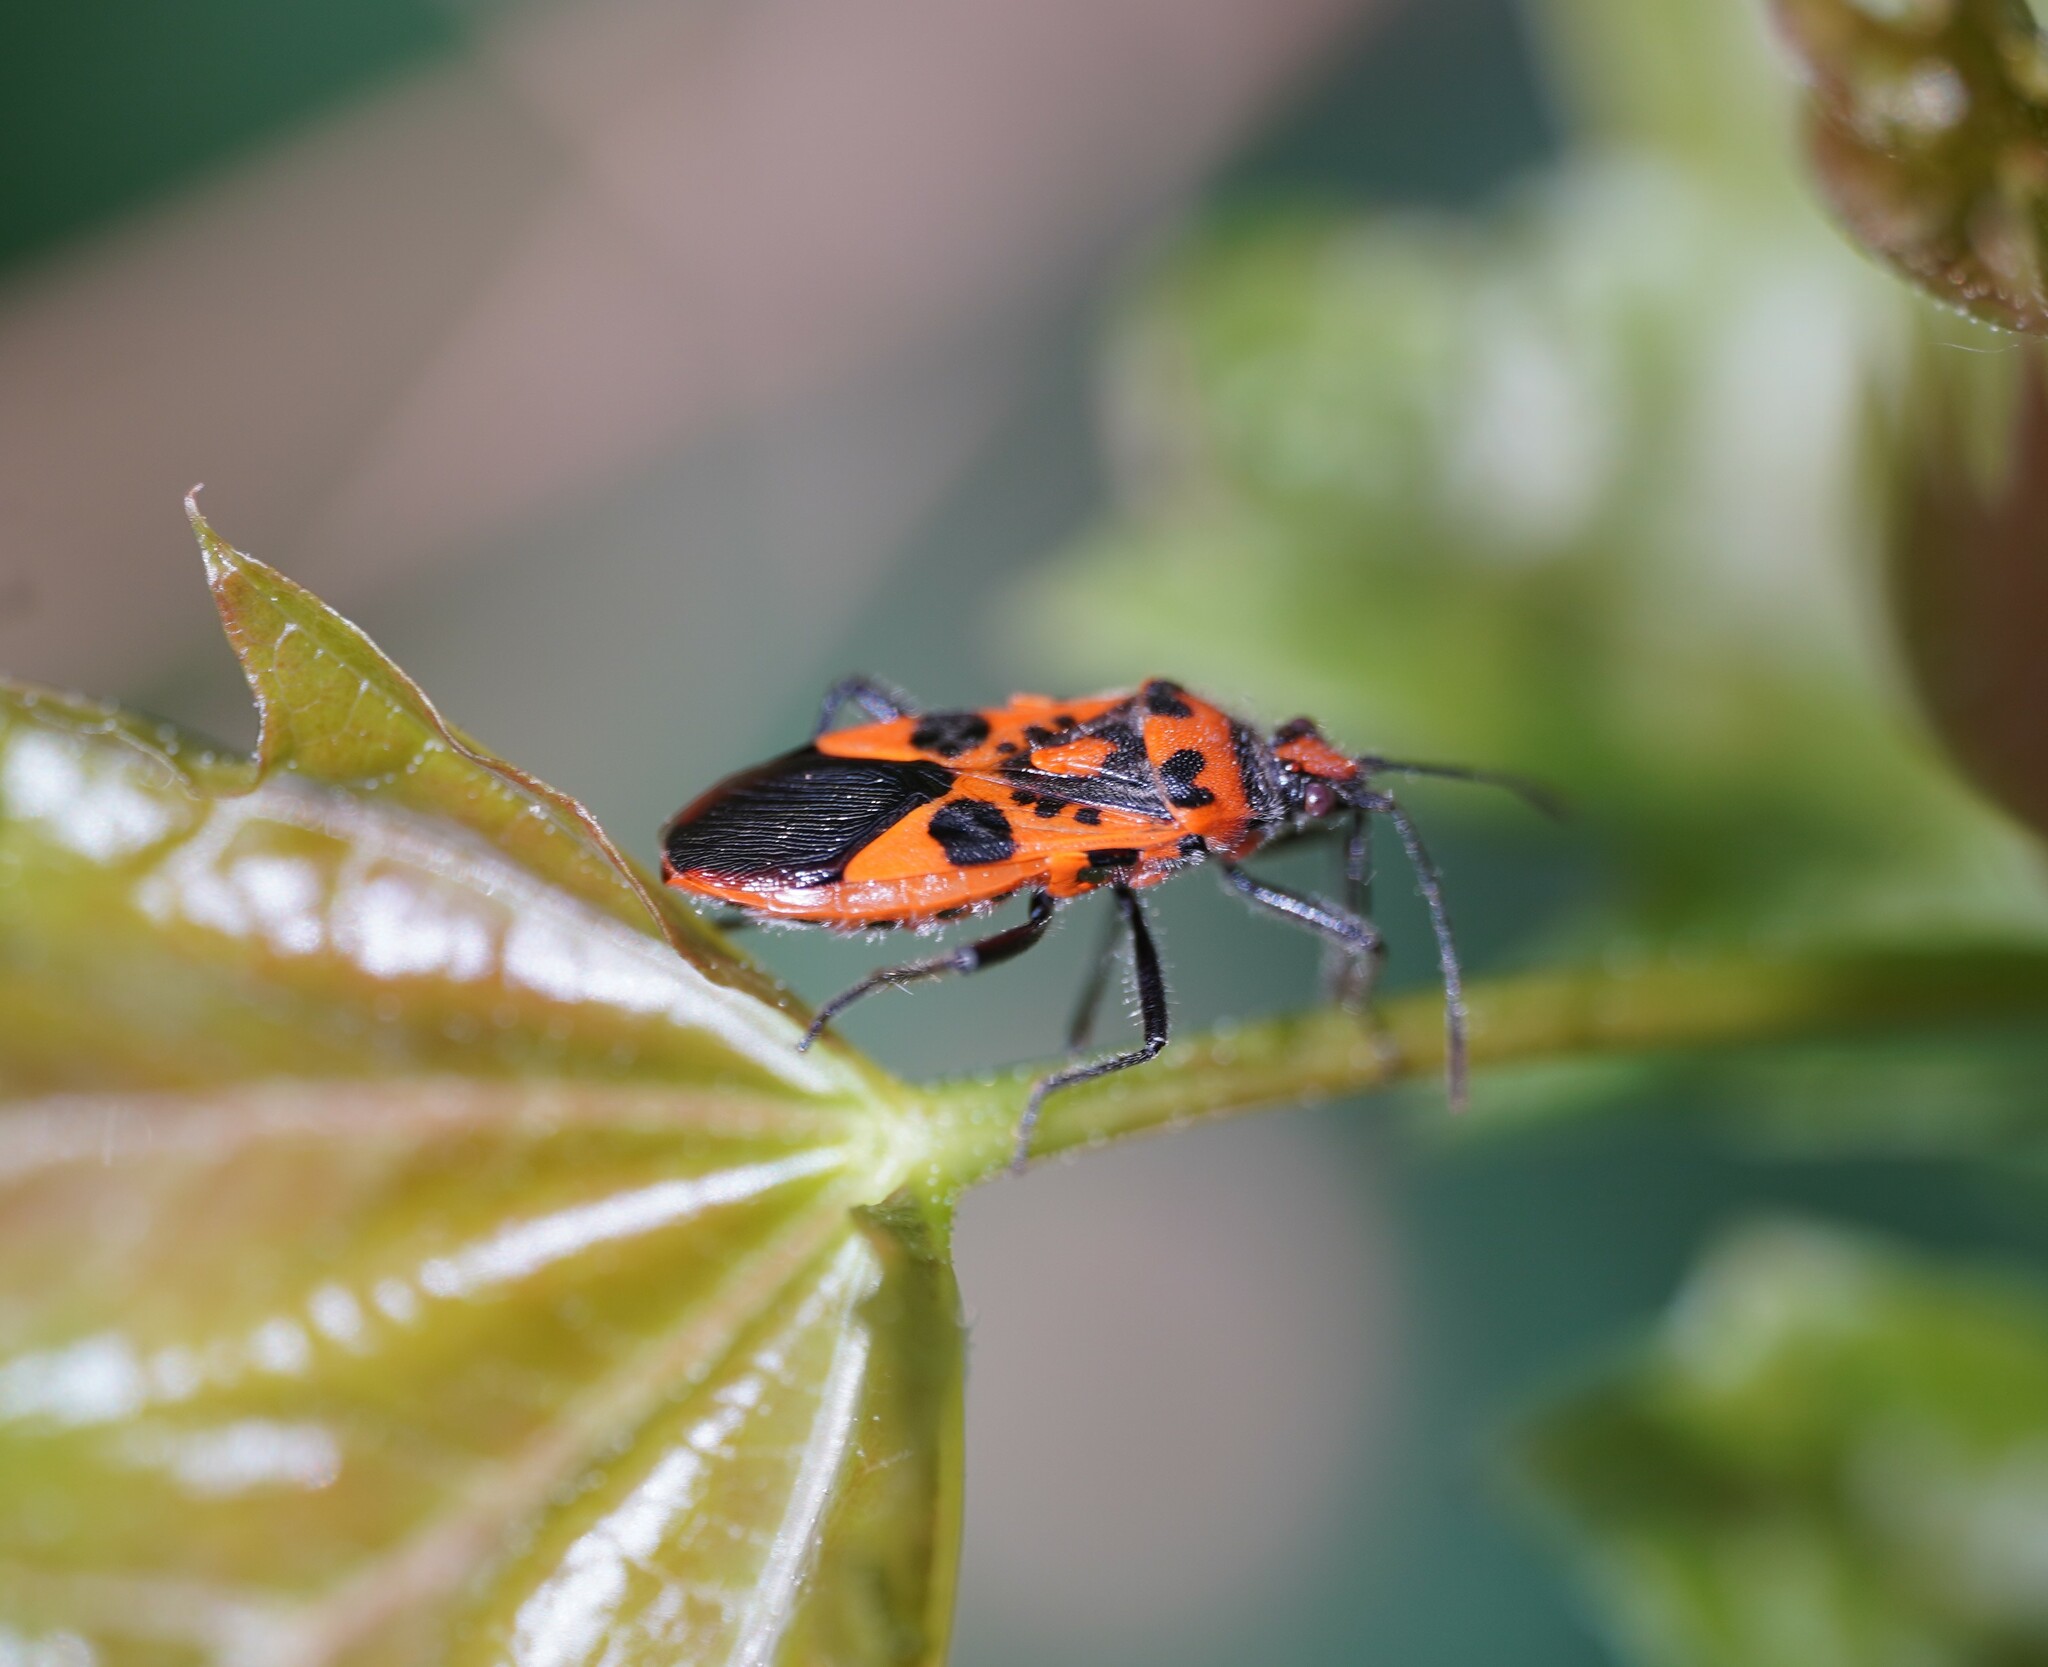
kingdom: Animalia
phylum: Arthropoda
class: Insecta
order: Hemiptera
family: Rhopalidae
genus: Corizus
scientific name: Corizus hyoscyami
